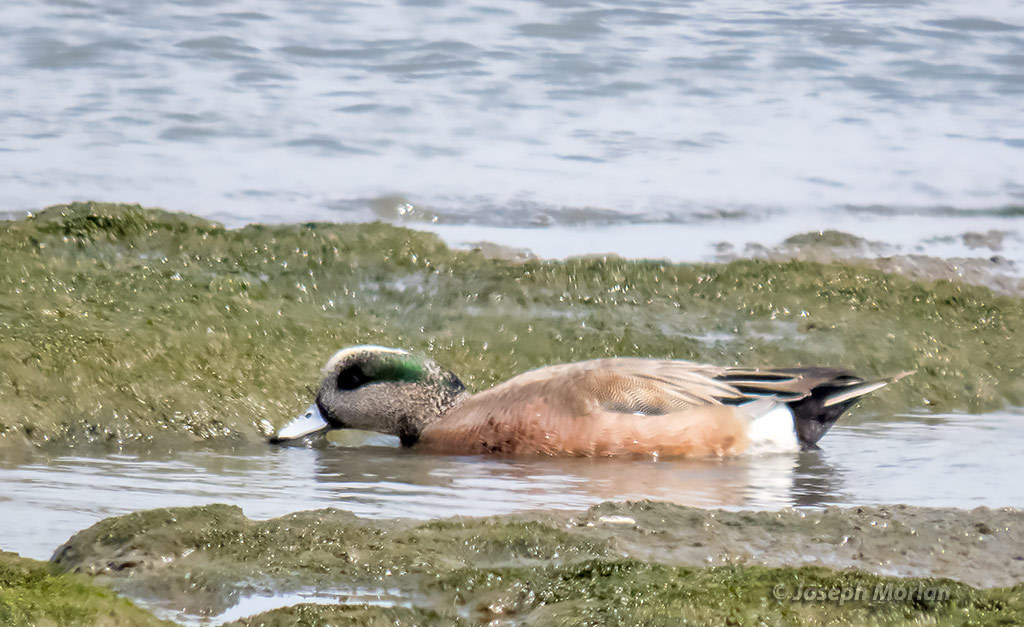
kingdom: Animalia
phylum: Chordata
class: Aves
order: Anseriformes
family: Anatidae
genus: Mareca
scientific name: Mareca americana
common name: American wigeon
